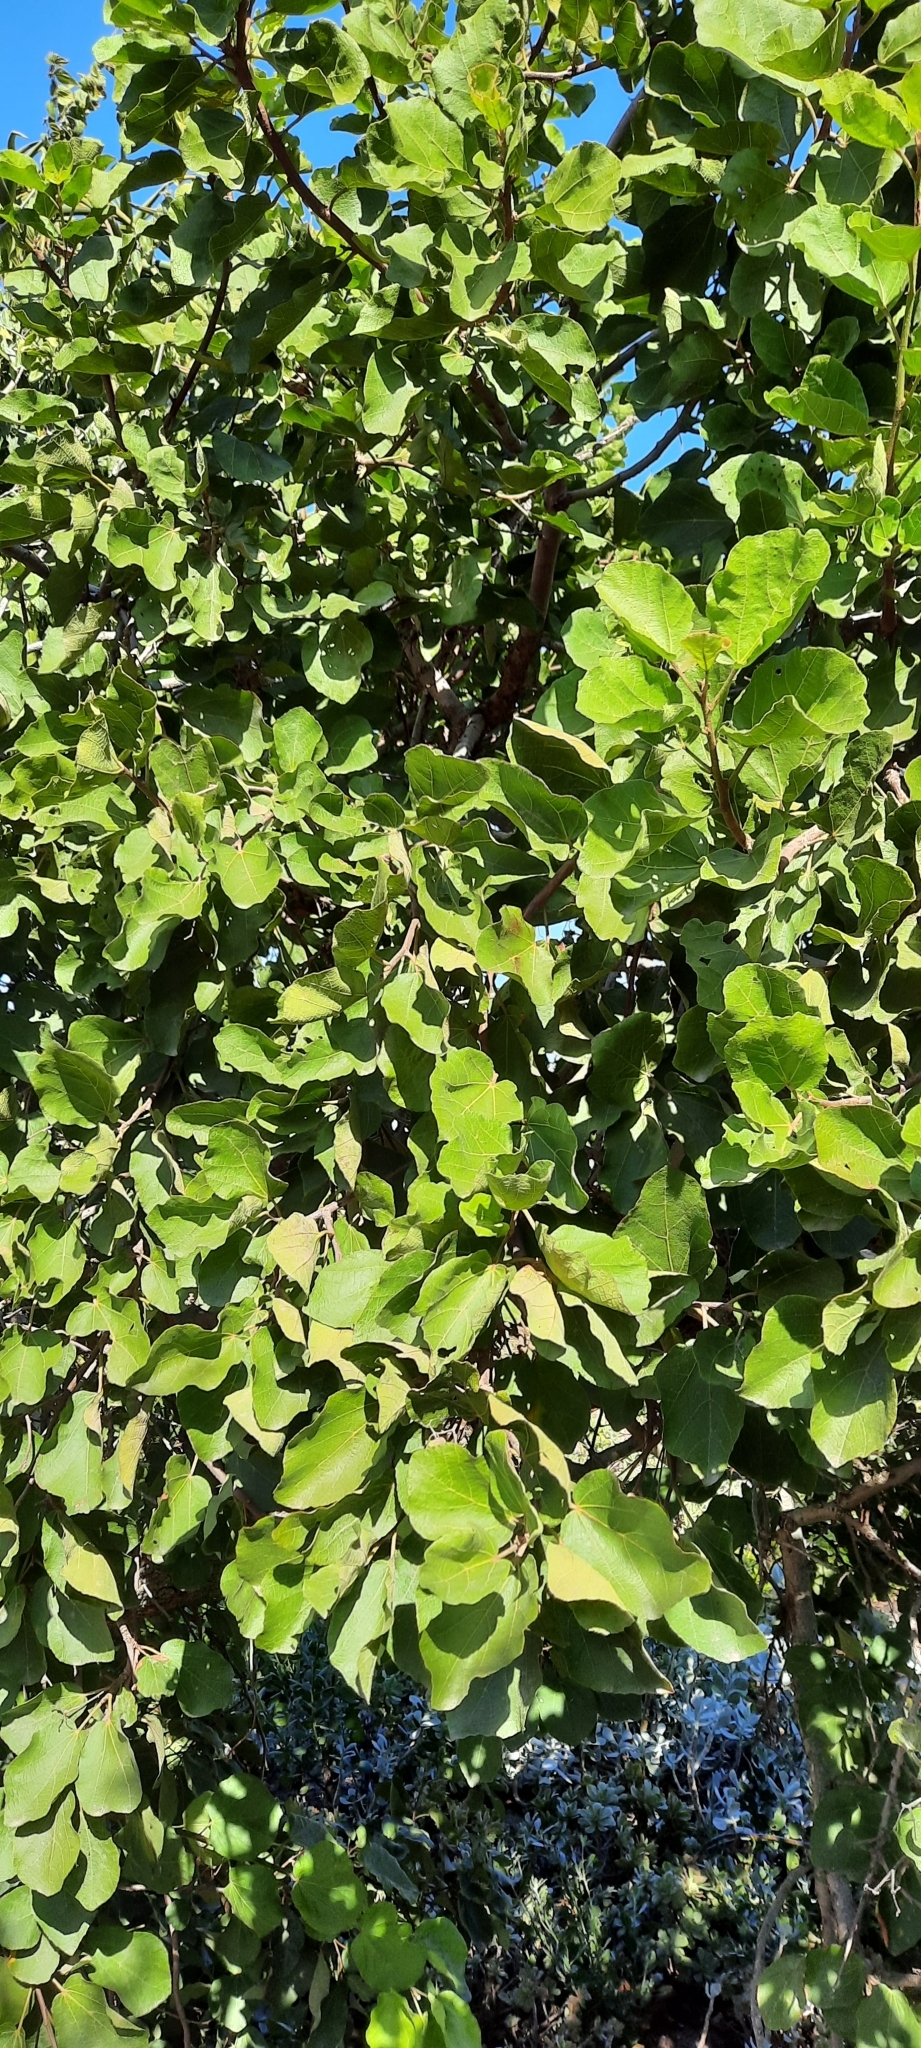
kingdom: Plantae
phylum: Tracheophyta
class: Magnoliopsida
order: Malvales
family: Malvaceae
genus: Dombeya
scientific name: Dombeya rotundifolia
